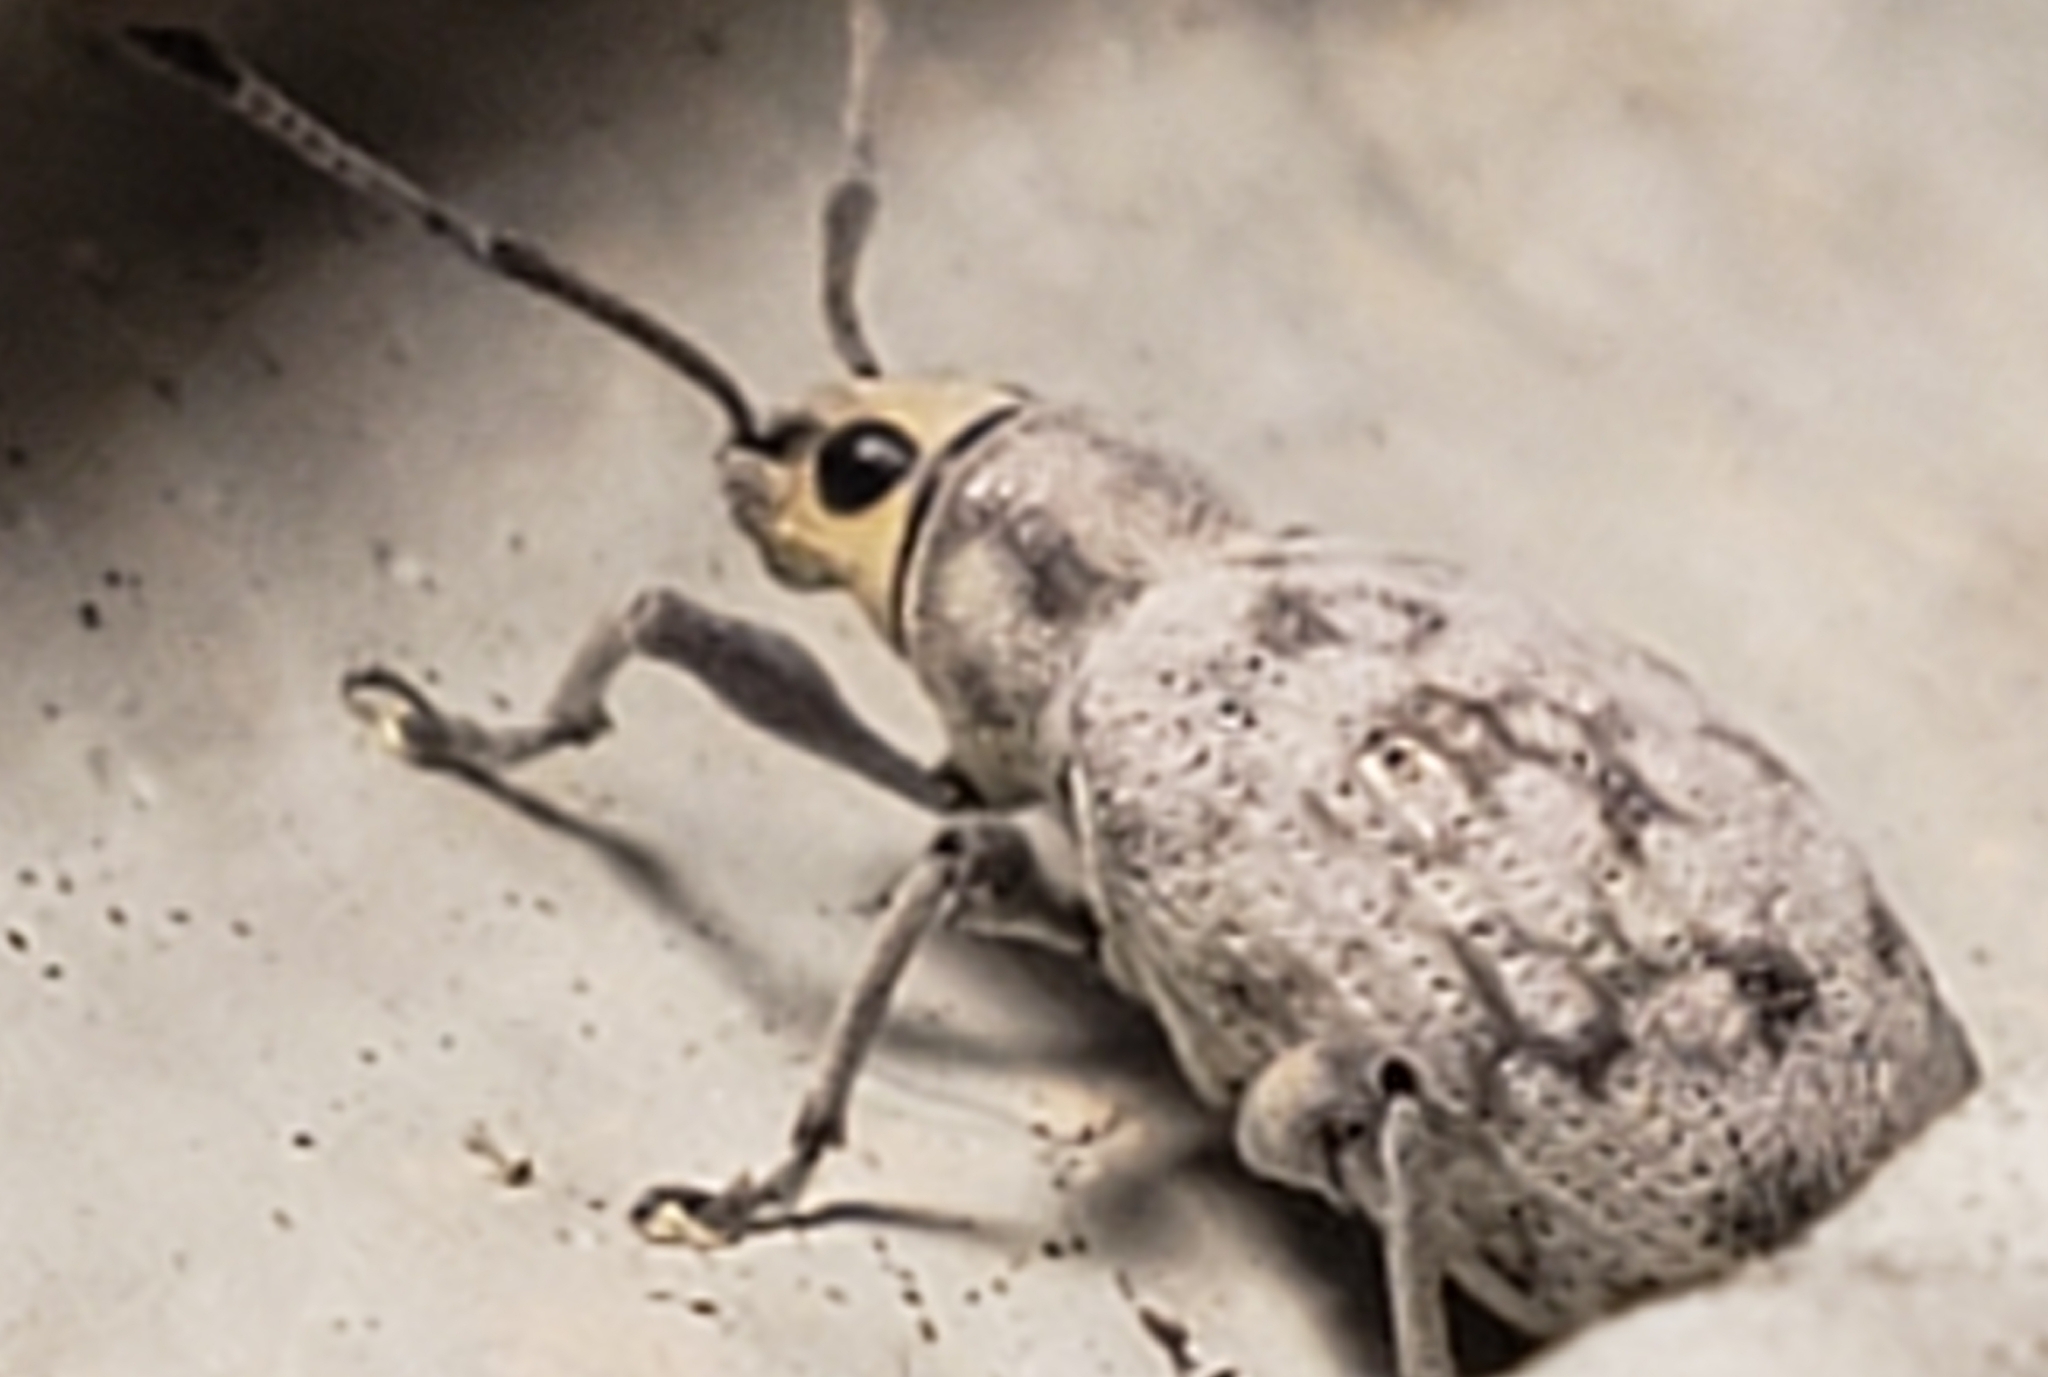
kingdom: Animalia
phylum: Arthropoda
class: Insecta
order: Coleoptera
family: Curculionidae
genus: Myllocerus
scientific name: Myllocerus undecimpustulatus
